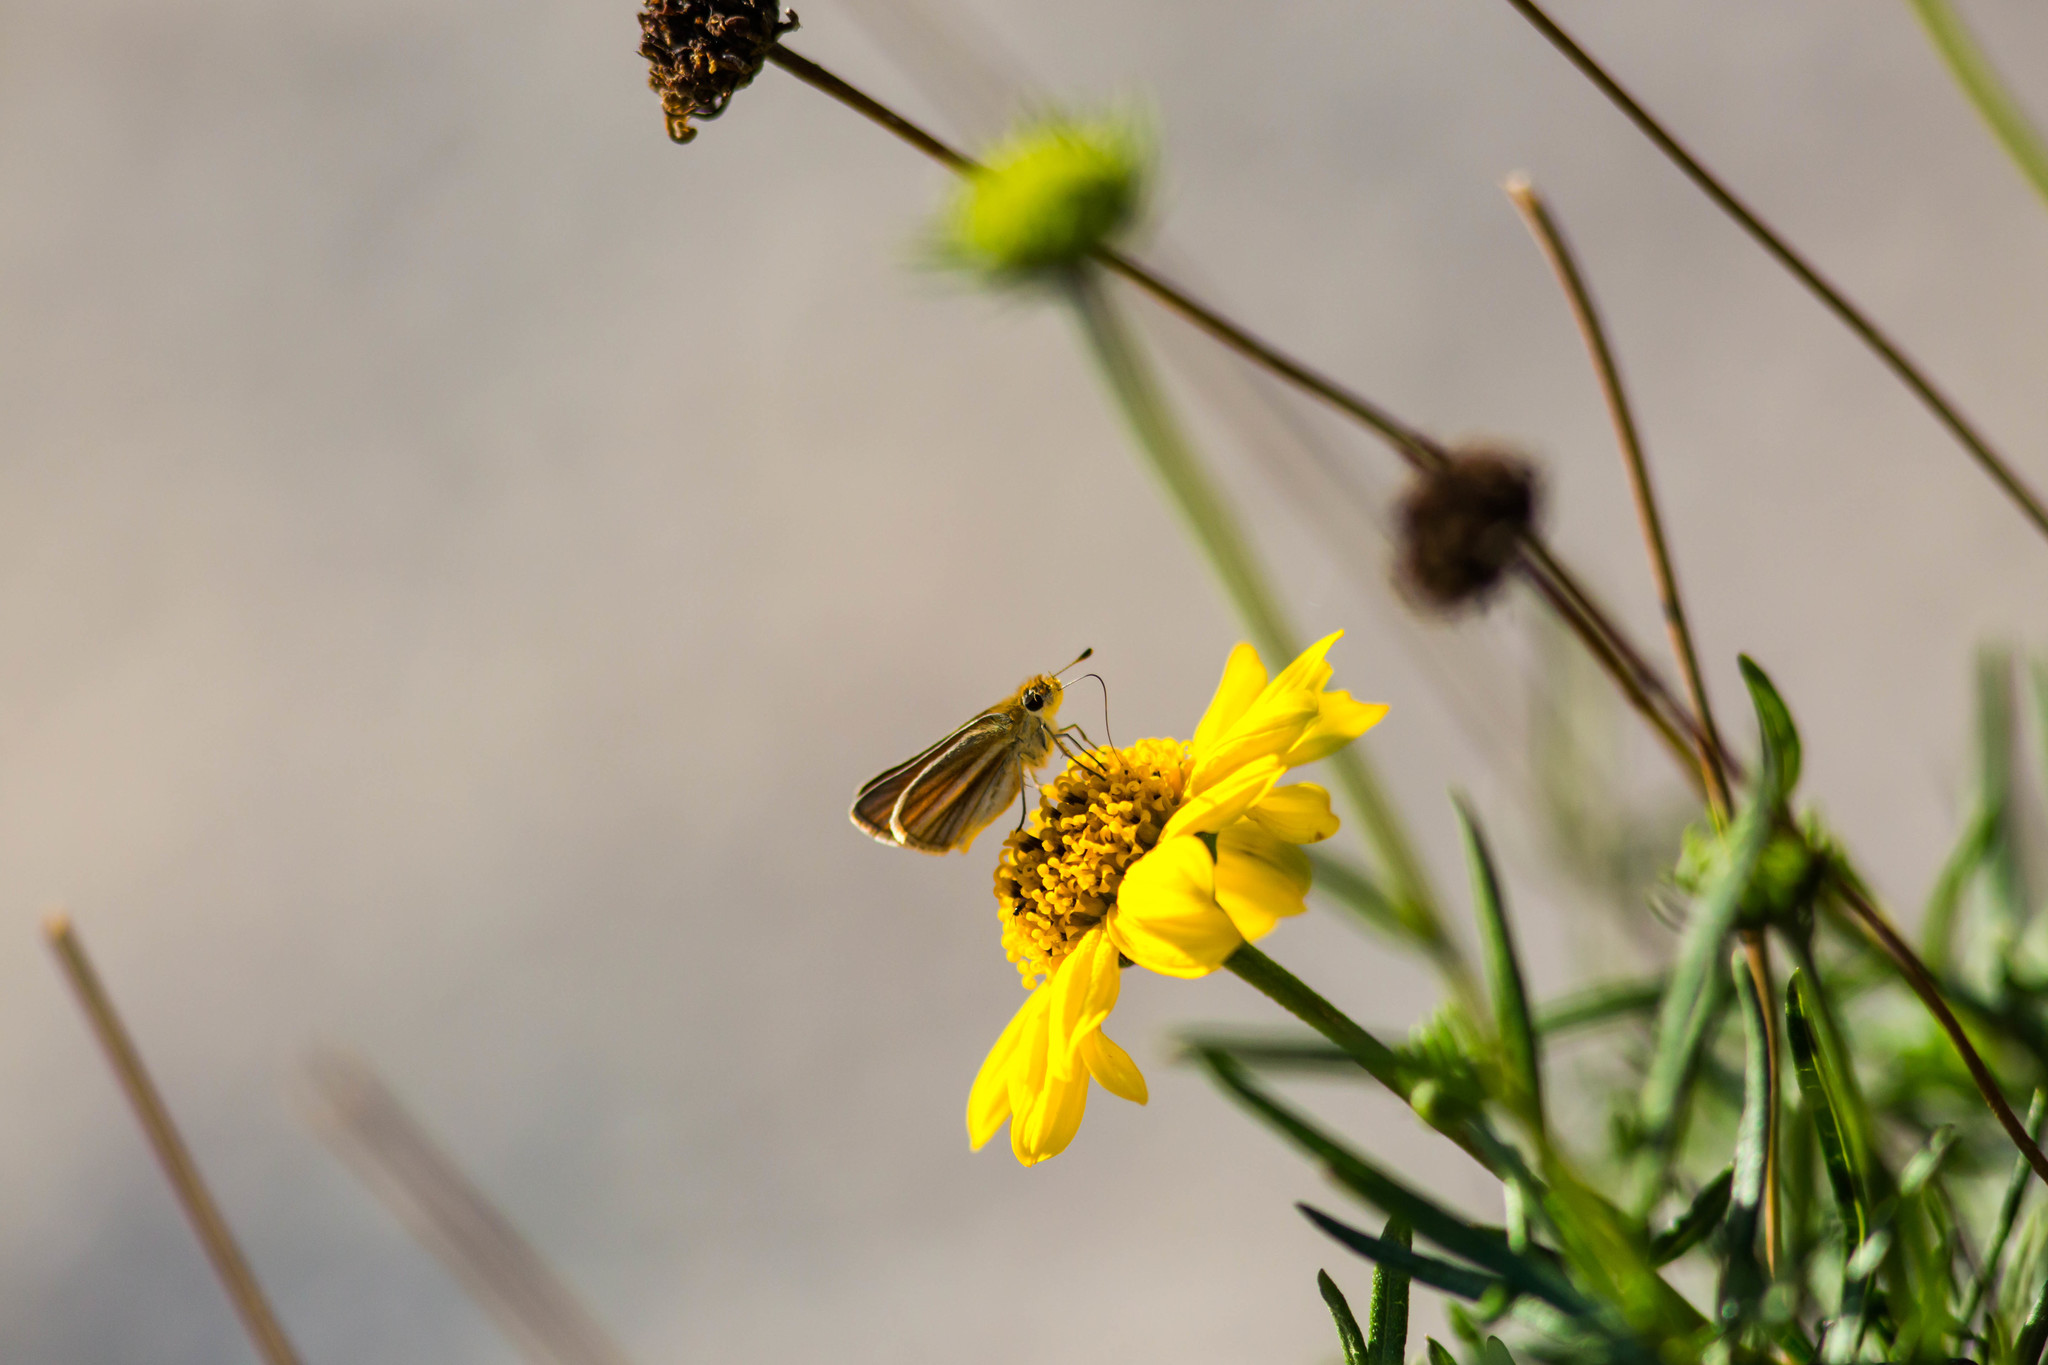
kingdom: Animalia
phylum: Arthropoda
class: Insecta
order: Lepidoptera
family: Hesperiidae
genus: Copaeodes
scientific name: Copaeodes minima
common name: Southern skipperling
